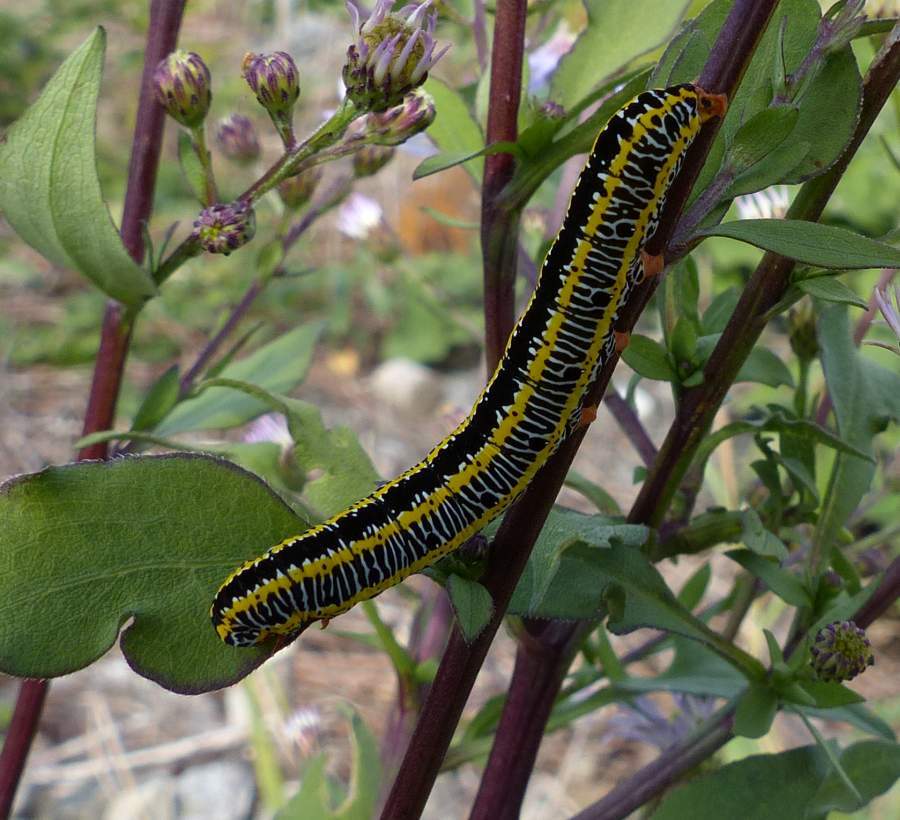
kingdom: Animalia
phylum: Arthropoda
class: Insecta
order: Lepidoptera
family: Noctuidae
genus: Melanchra
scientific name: Melanchra picta
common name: Zebra caterpillar
